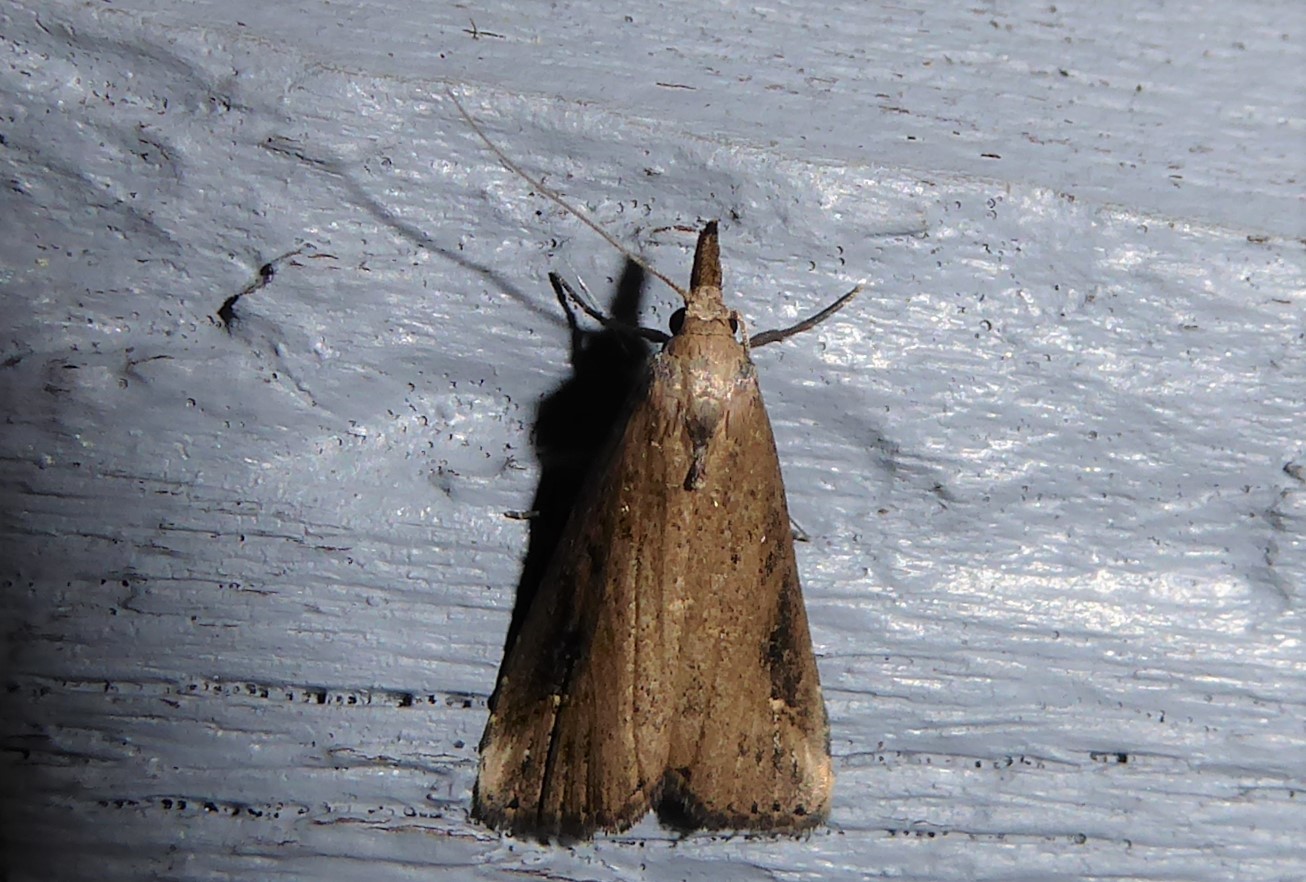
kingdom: Animalia
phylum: Arthropoda
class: Insecta
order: Lepidoptera
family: Erebidae
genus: Schrankia
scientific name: Schrankia costaestrigalis
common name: Pinion-streaked snout
